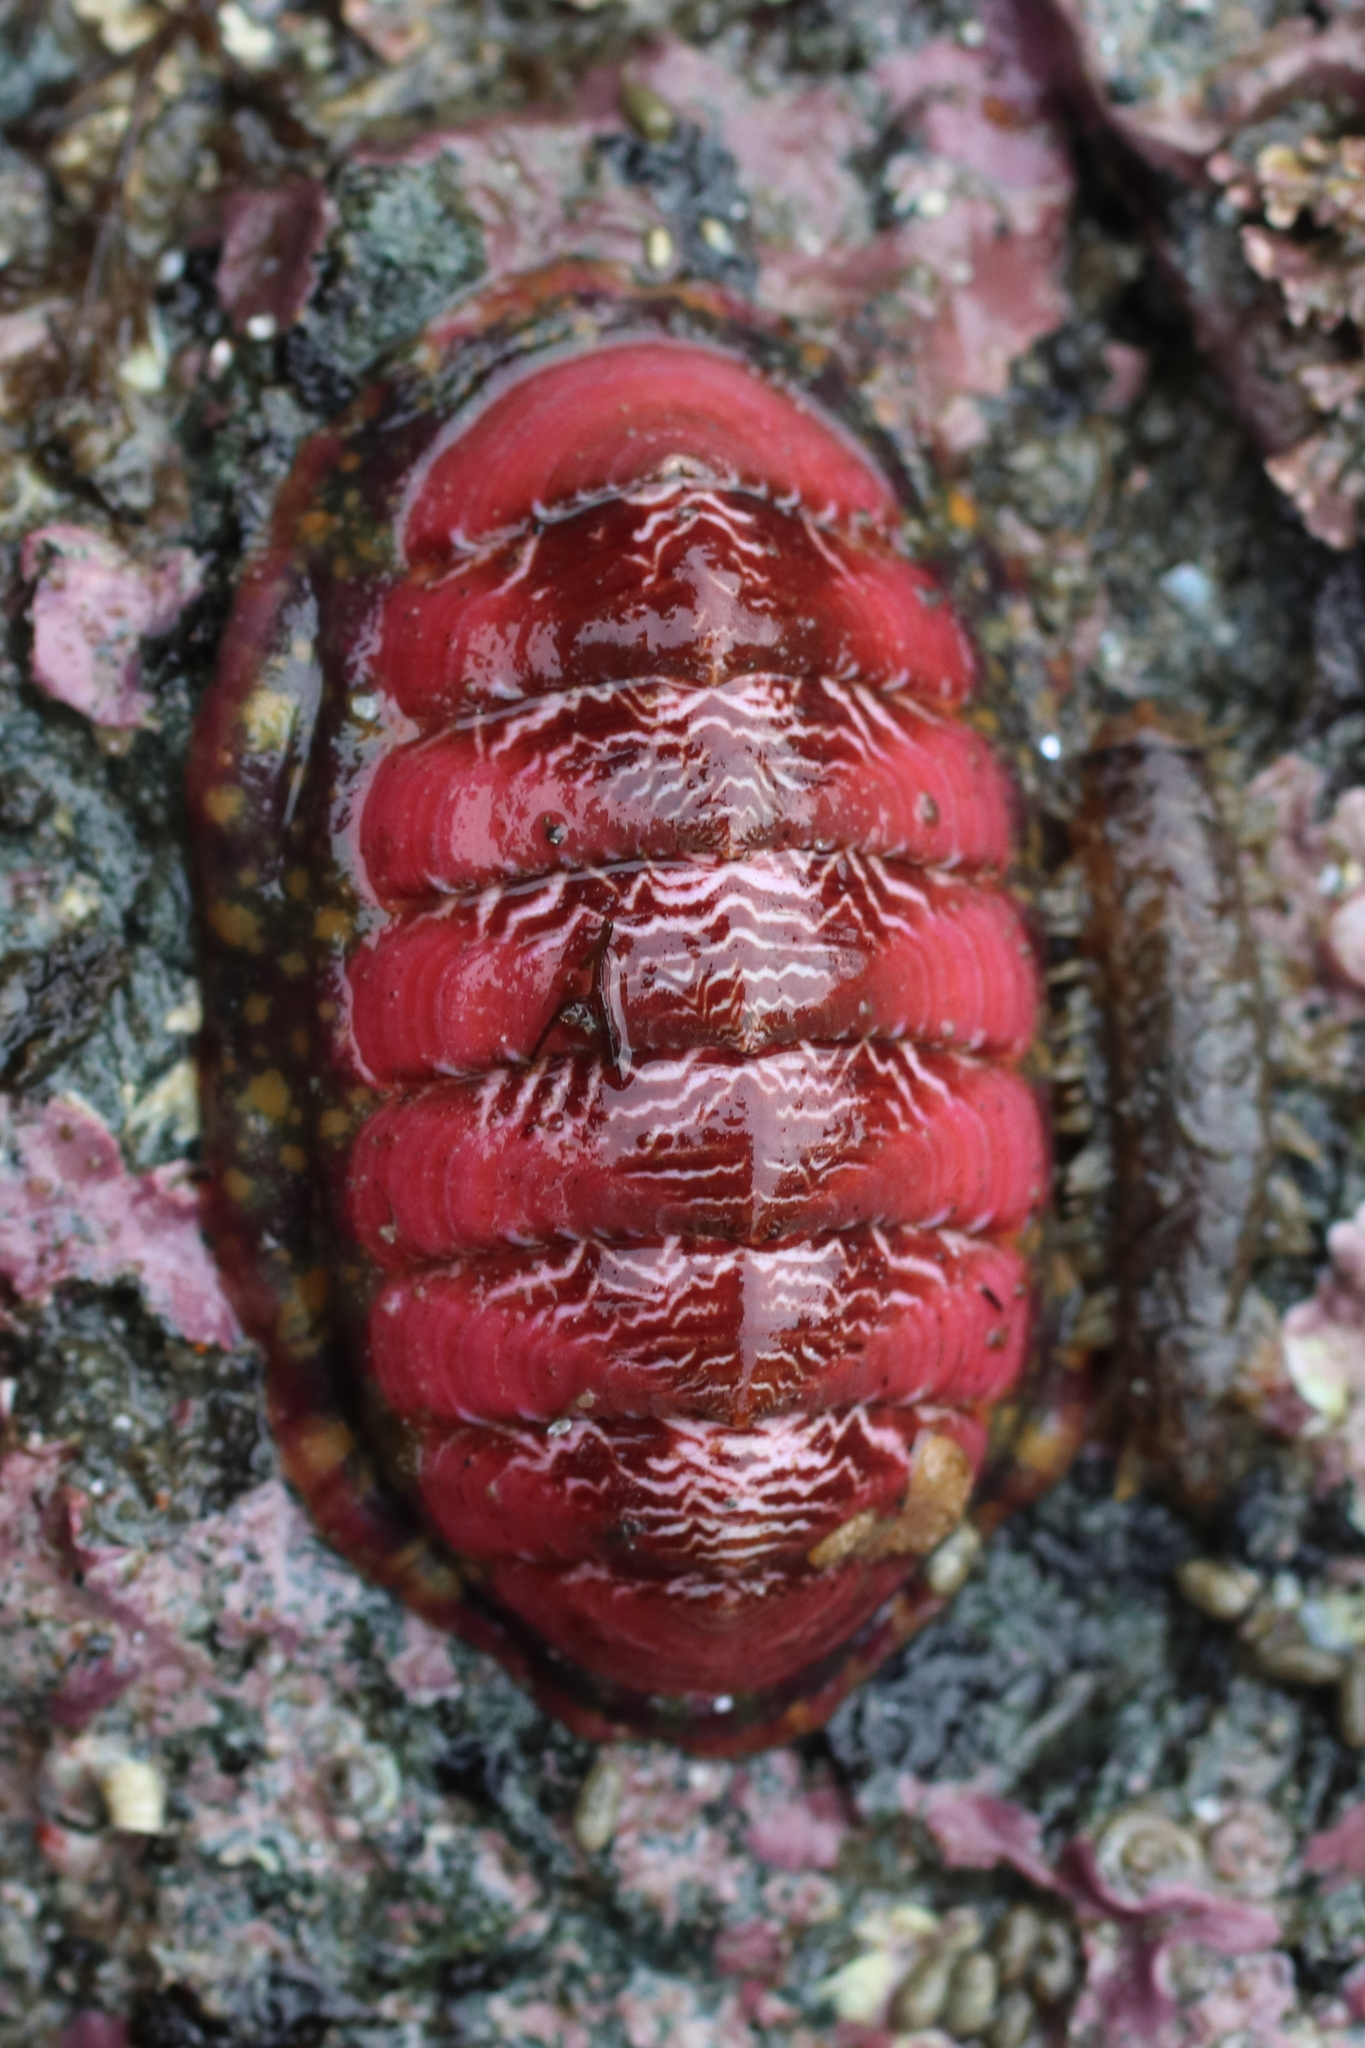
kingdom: Animalia
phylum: Mollusca
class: Polyplacophora
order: Chitonida
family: Tonicellidae
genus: Tonicella
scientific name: Tonicella insignis
